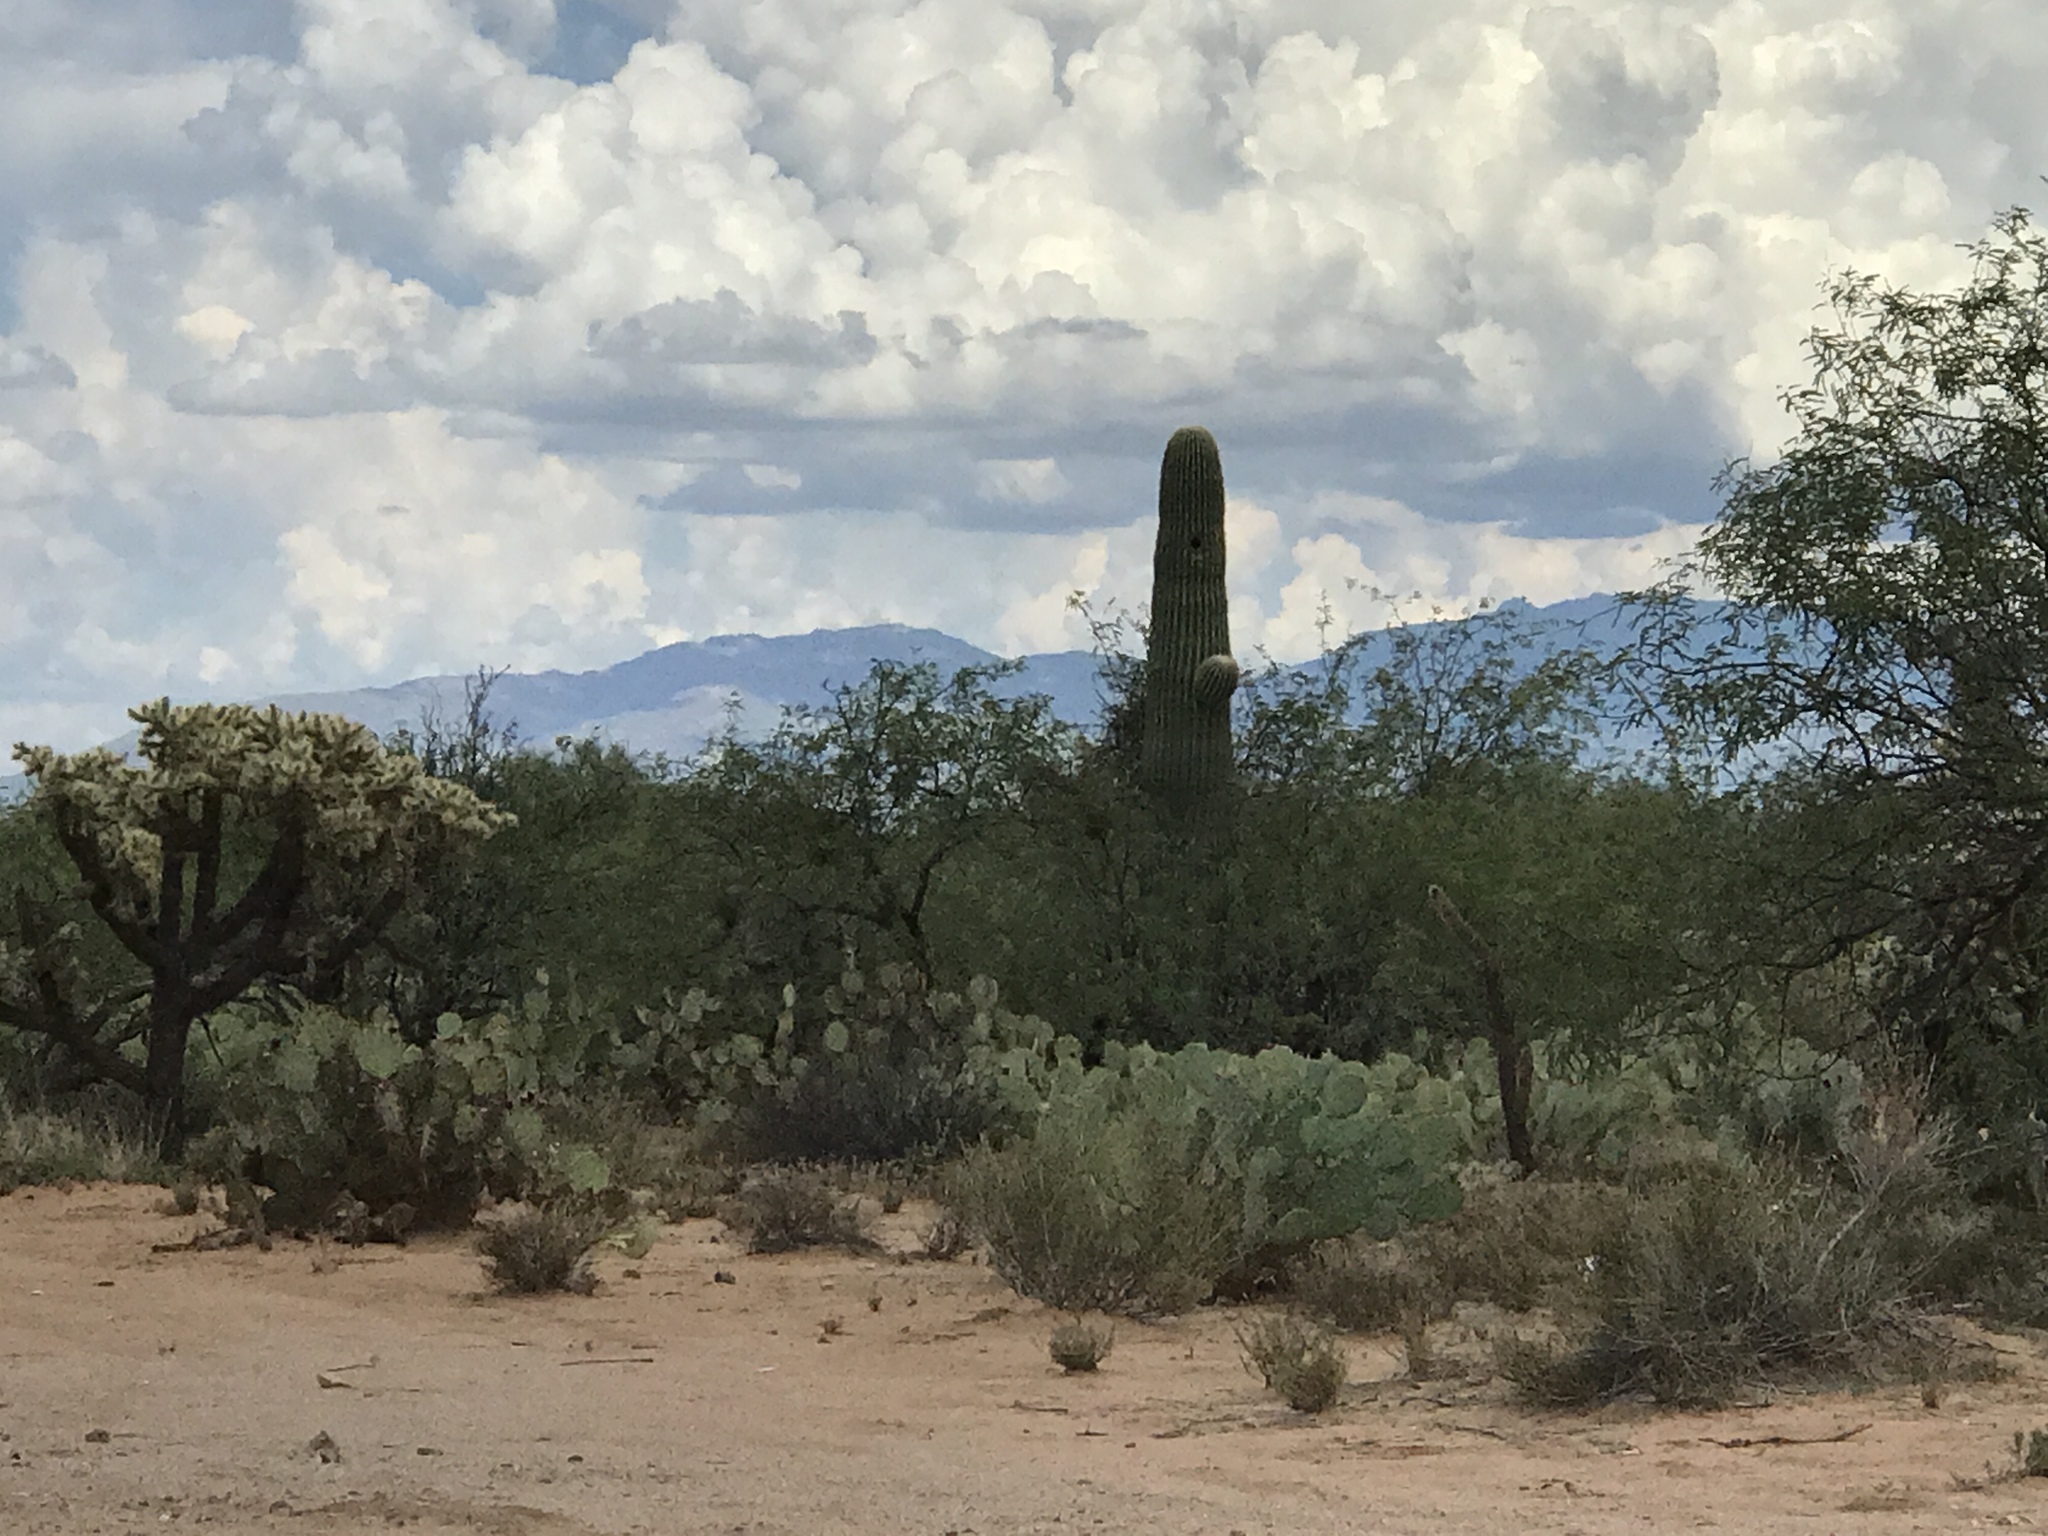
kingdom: Plantae
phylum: Tracheophyta
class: Magnoliopsida
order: Caryophyllales
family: Cactaceae
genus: Carnegiea
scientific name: Carnegiea gigantea
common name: Saguaro
